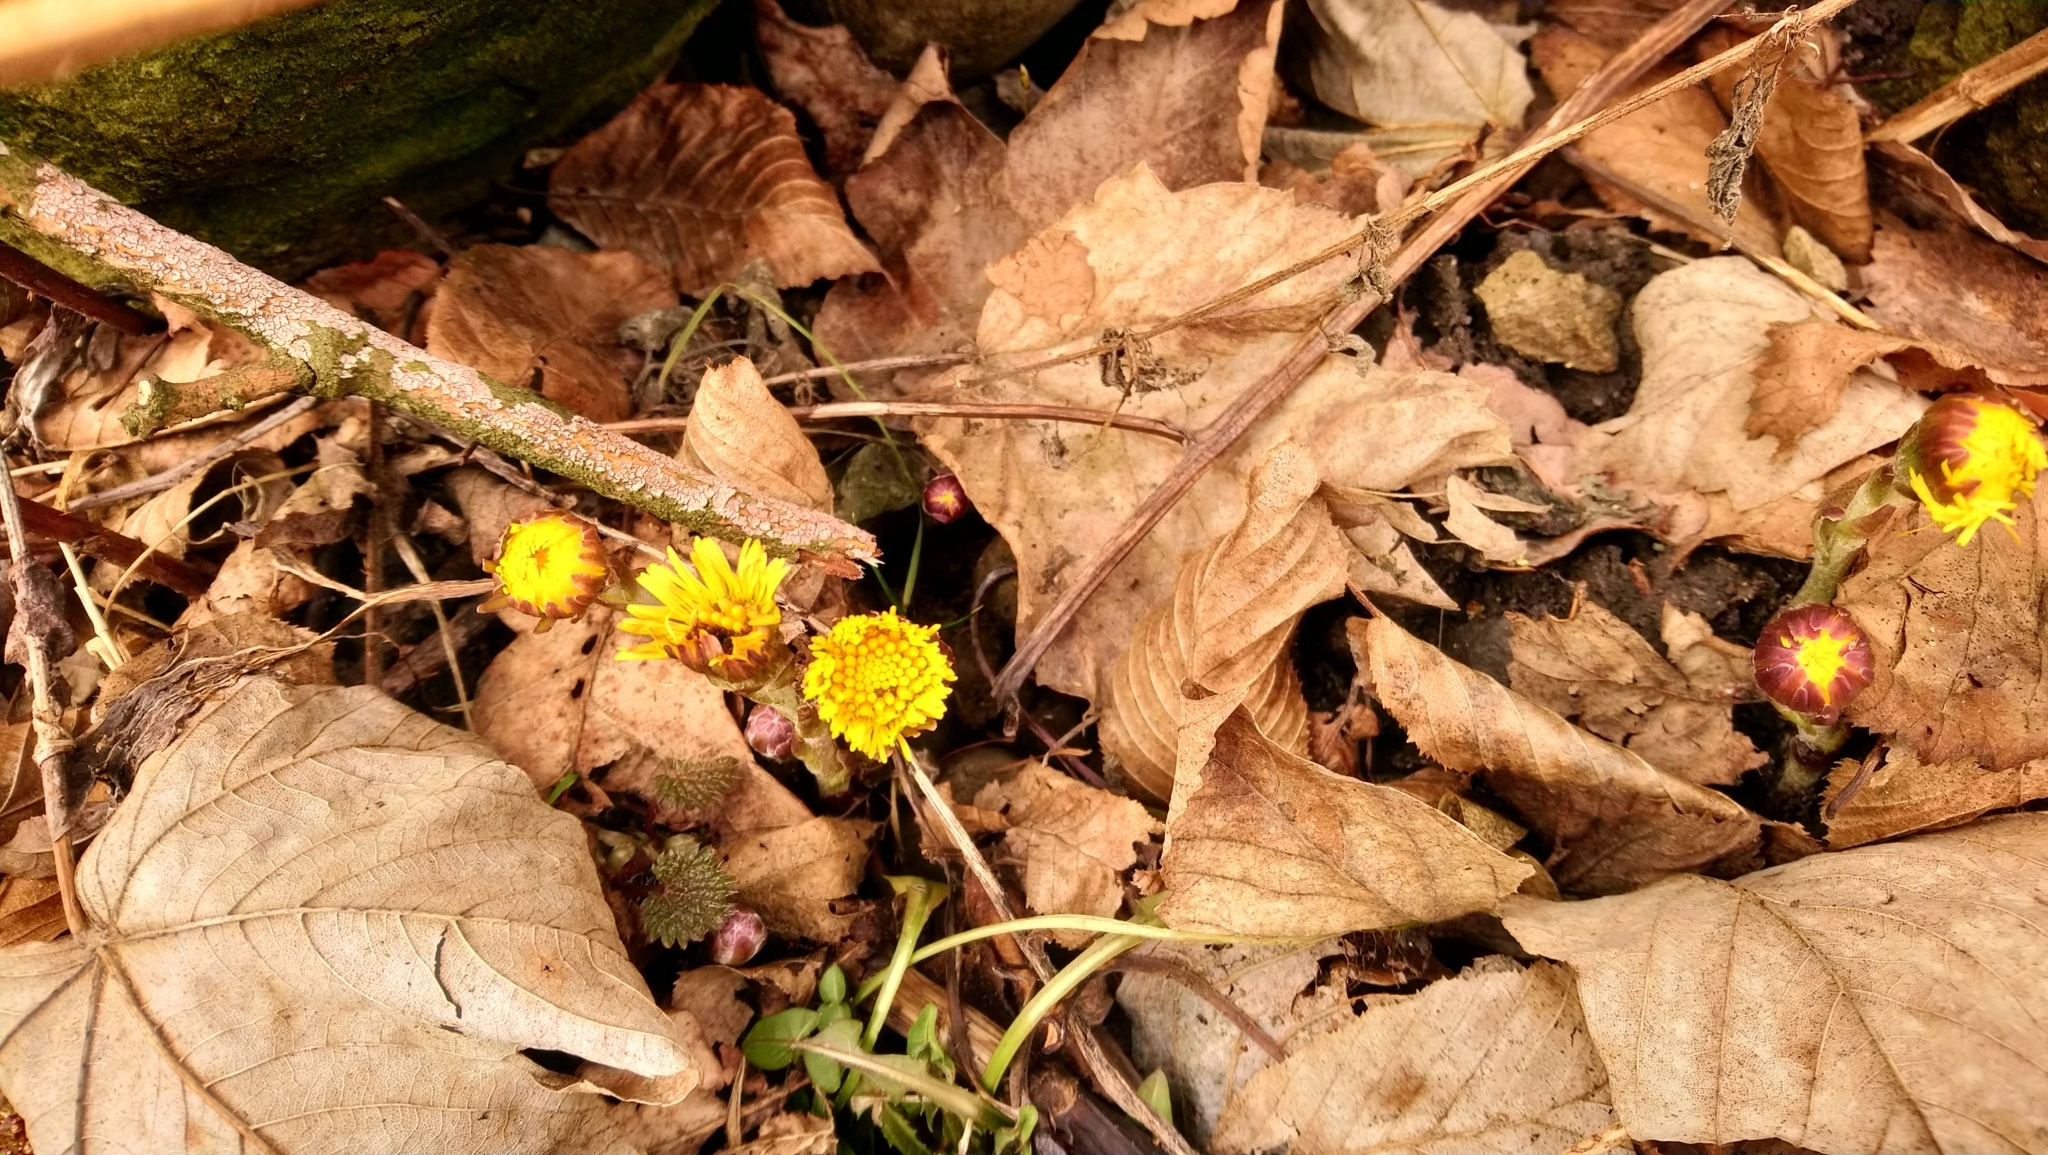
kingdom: Plantae
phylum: Tracheophyta
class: Magnoliopsida
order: Asterales
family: Asteraceae
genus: Tussilago
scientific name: Tussilago farfara
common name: Coltsfoot
